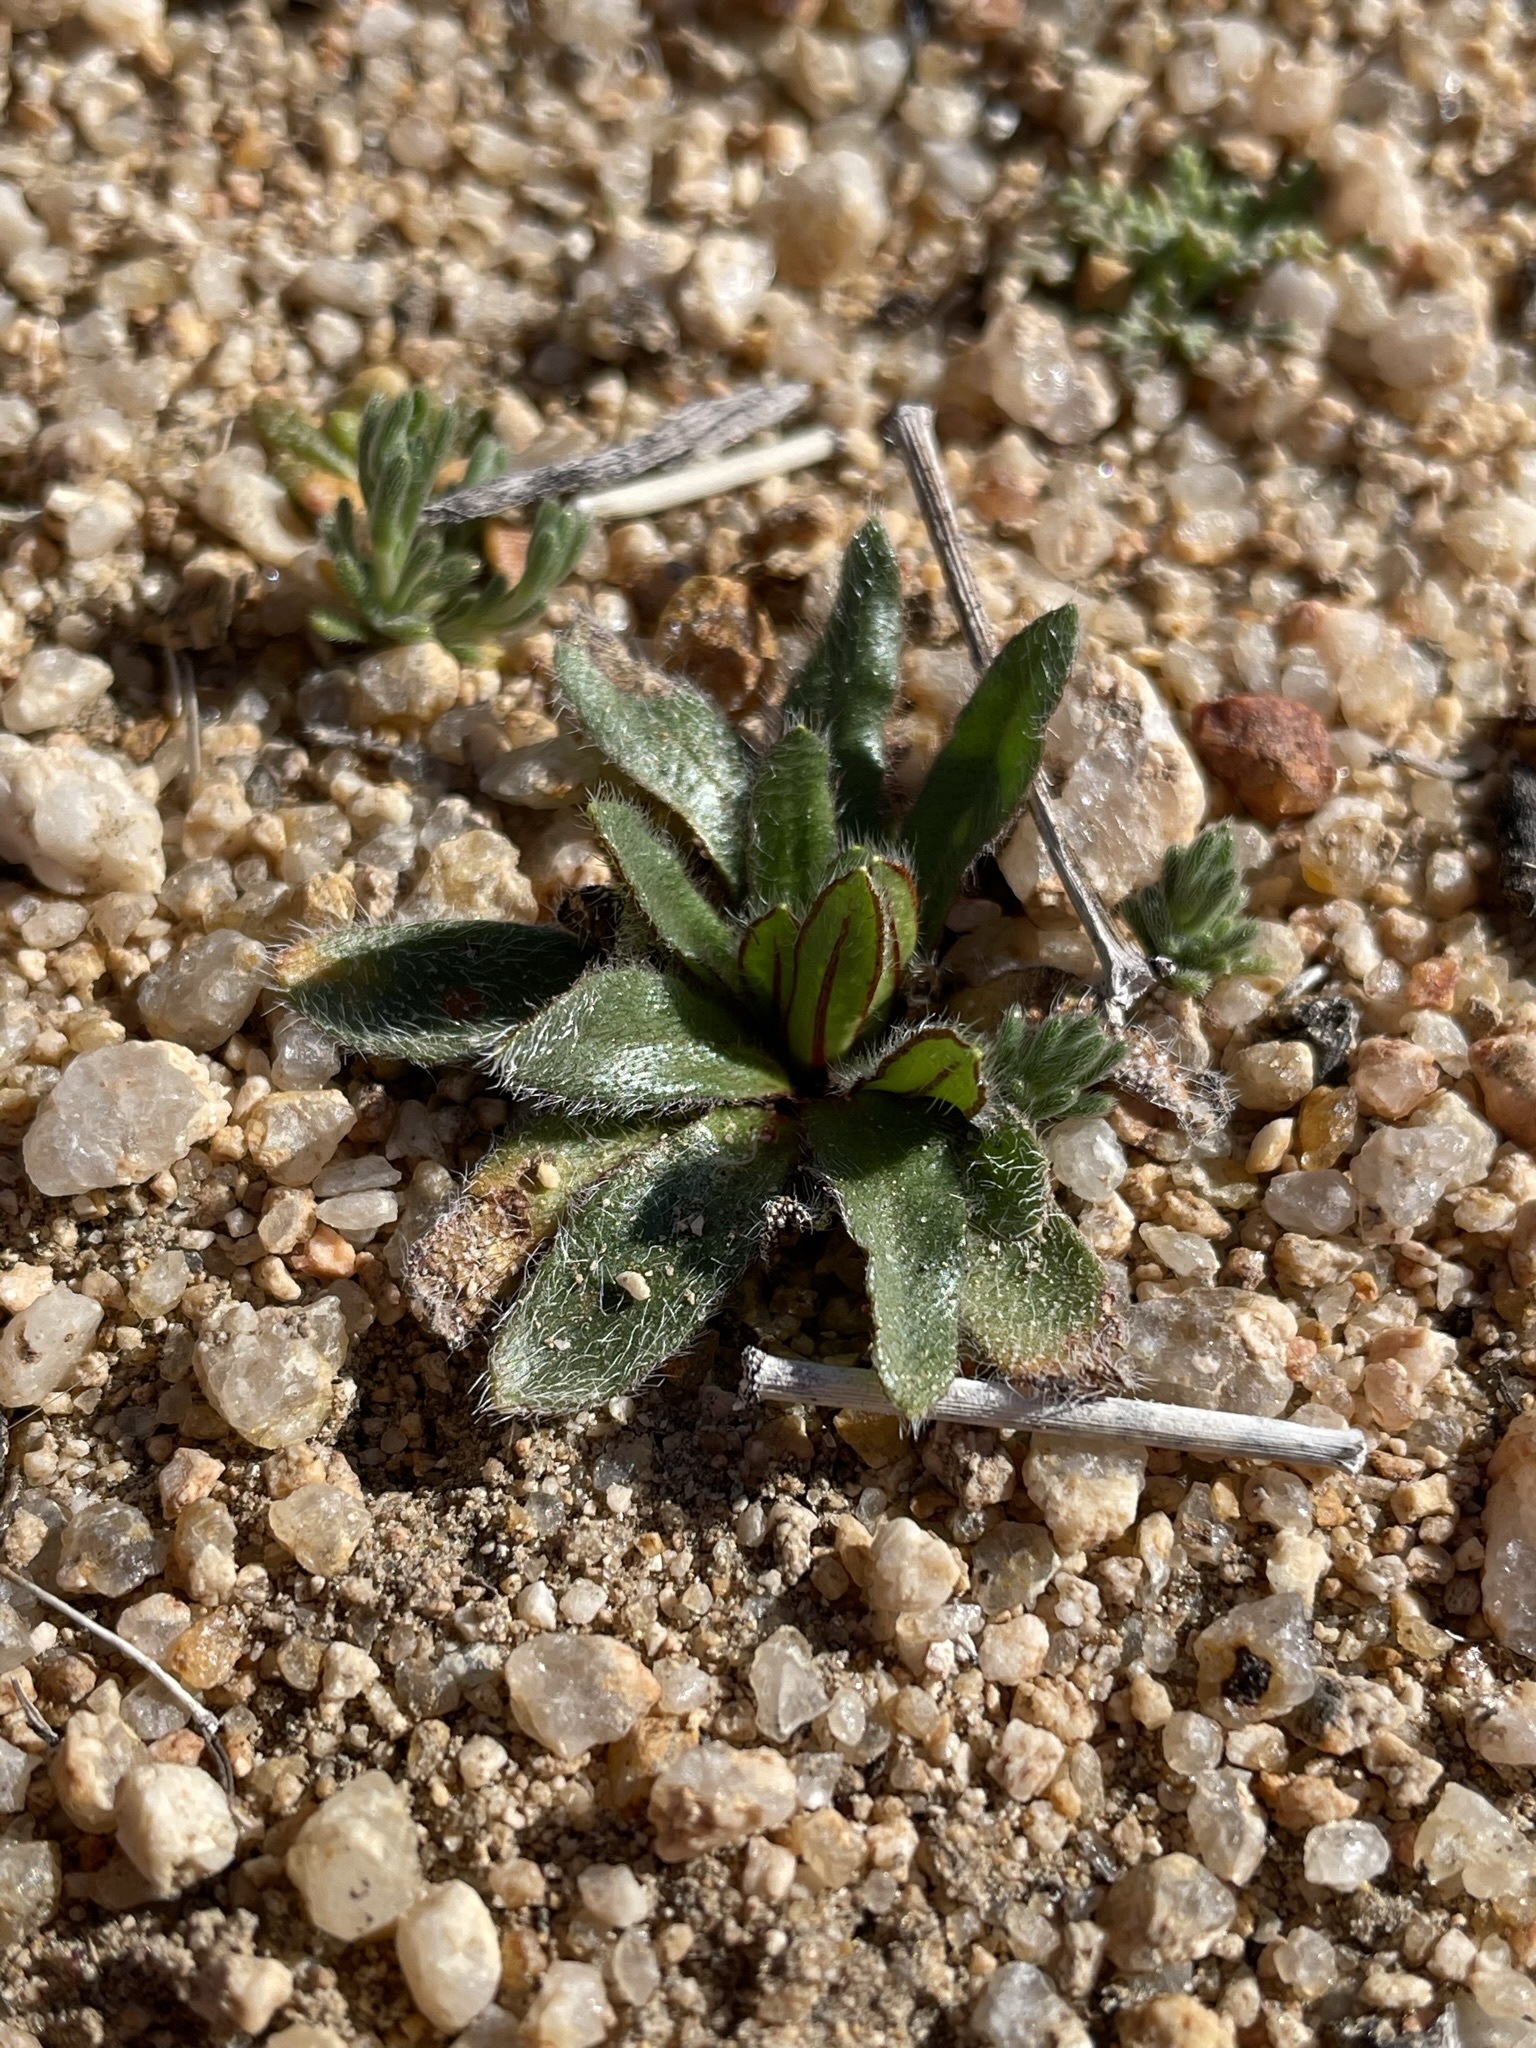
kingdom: Plantae
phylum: Tracheophyta
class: Magnoliopsida
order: Boraginales
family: Boraginaceae
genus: Plagiobothrys
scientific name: Plagiobothrys arizonicus
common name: Arizona popcorn-flower
